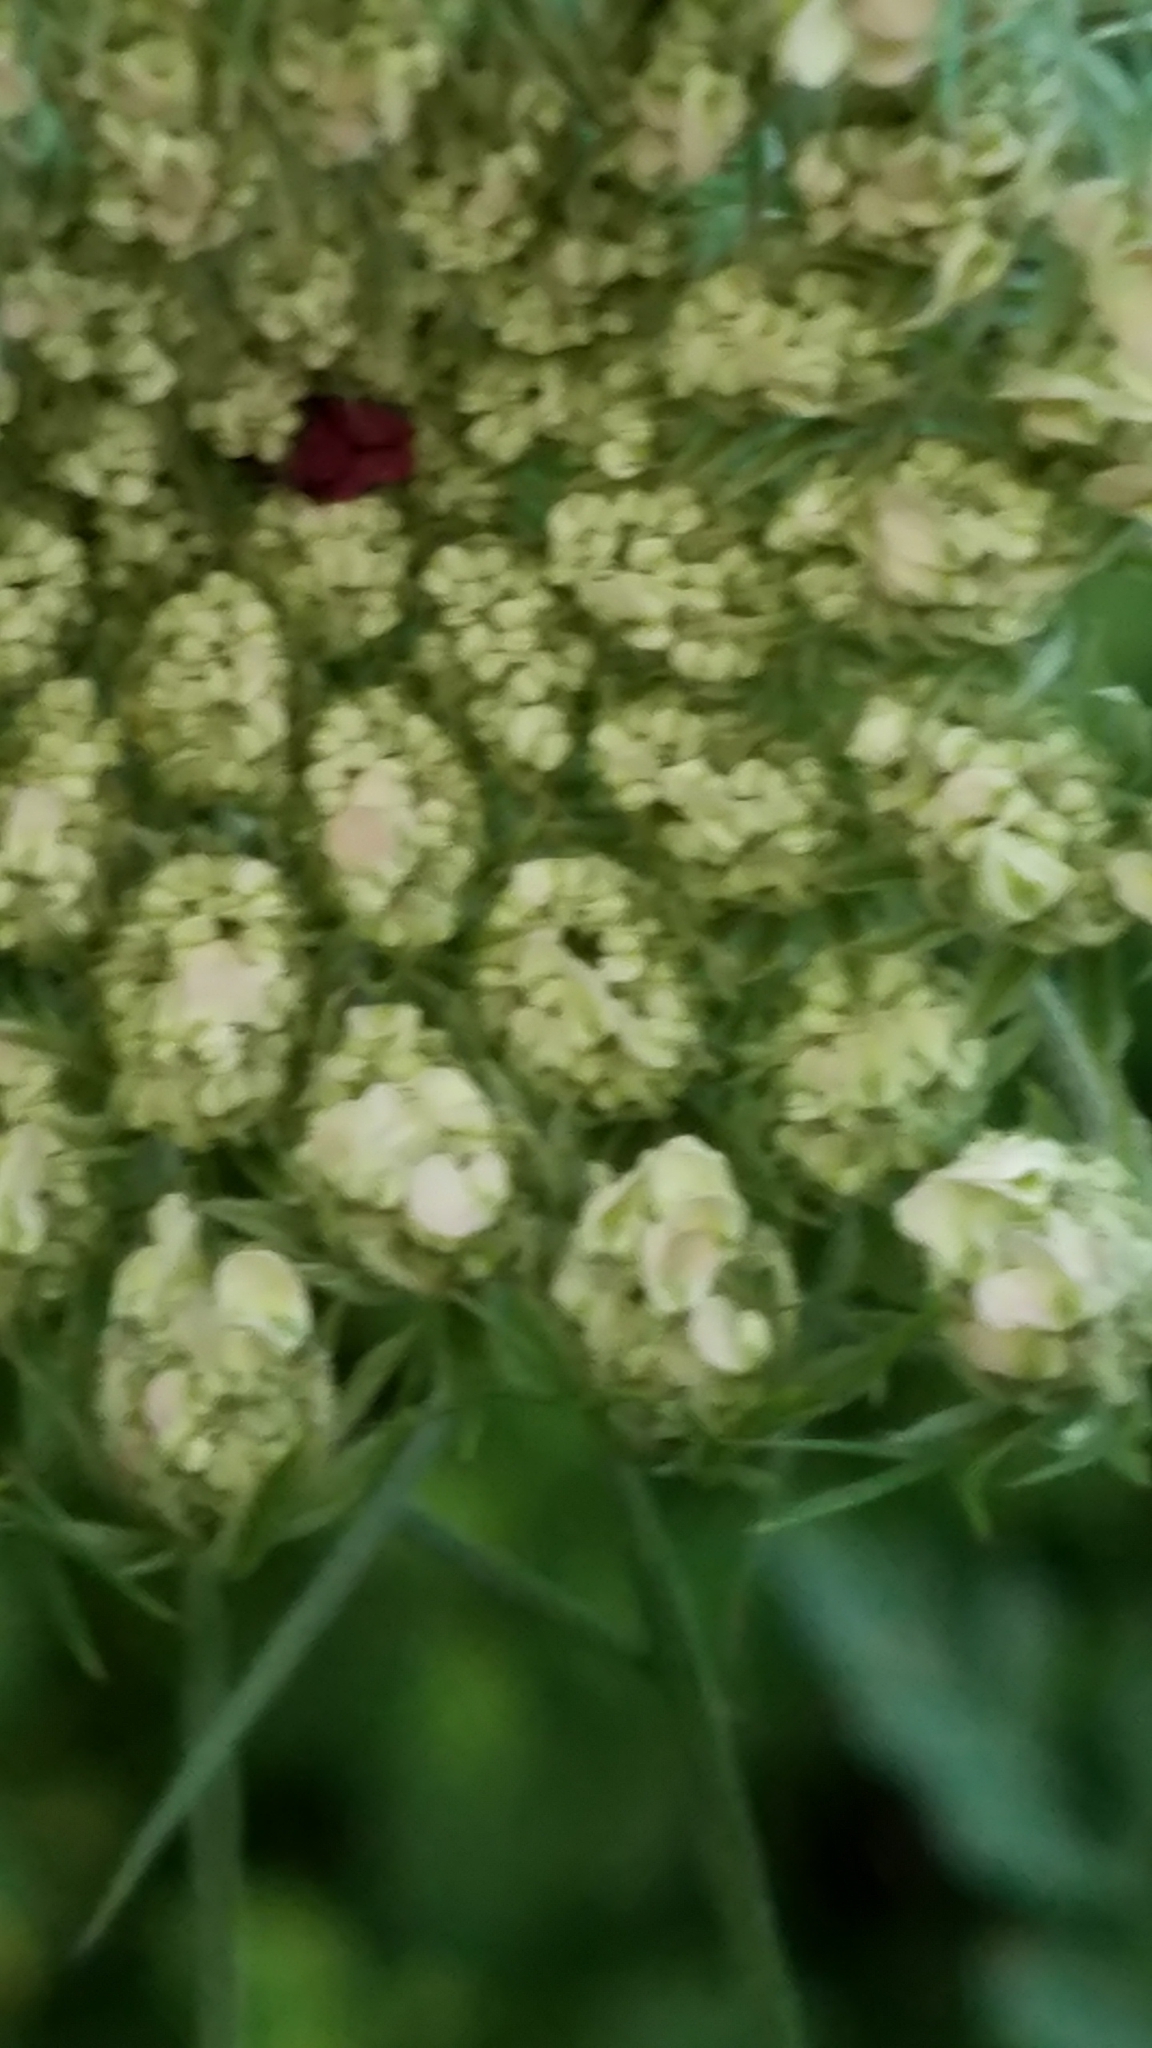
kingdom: Plantae
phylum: Tracheophyta
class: Magnoliopsida
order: Apiales
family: Apiaceae
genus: Daucus
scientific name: Daucus carota
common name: Wild carrot
